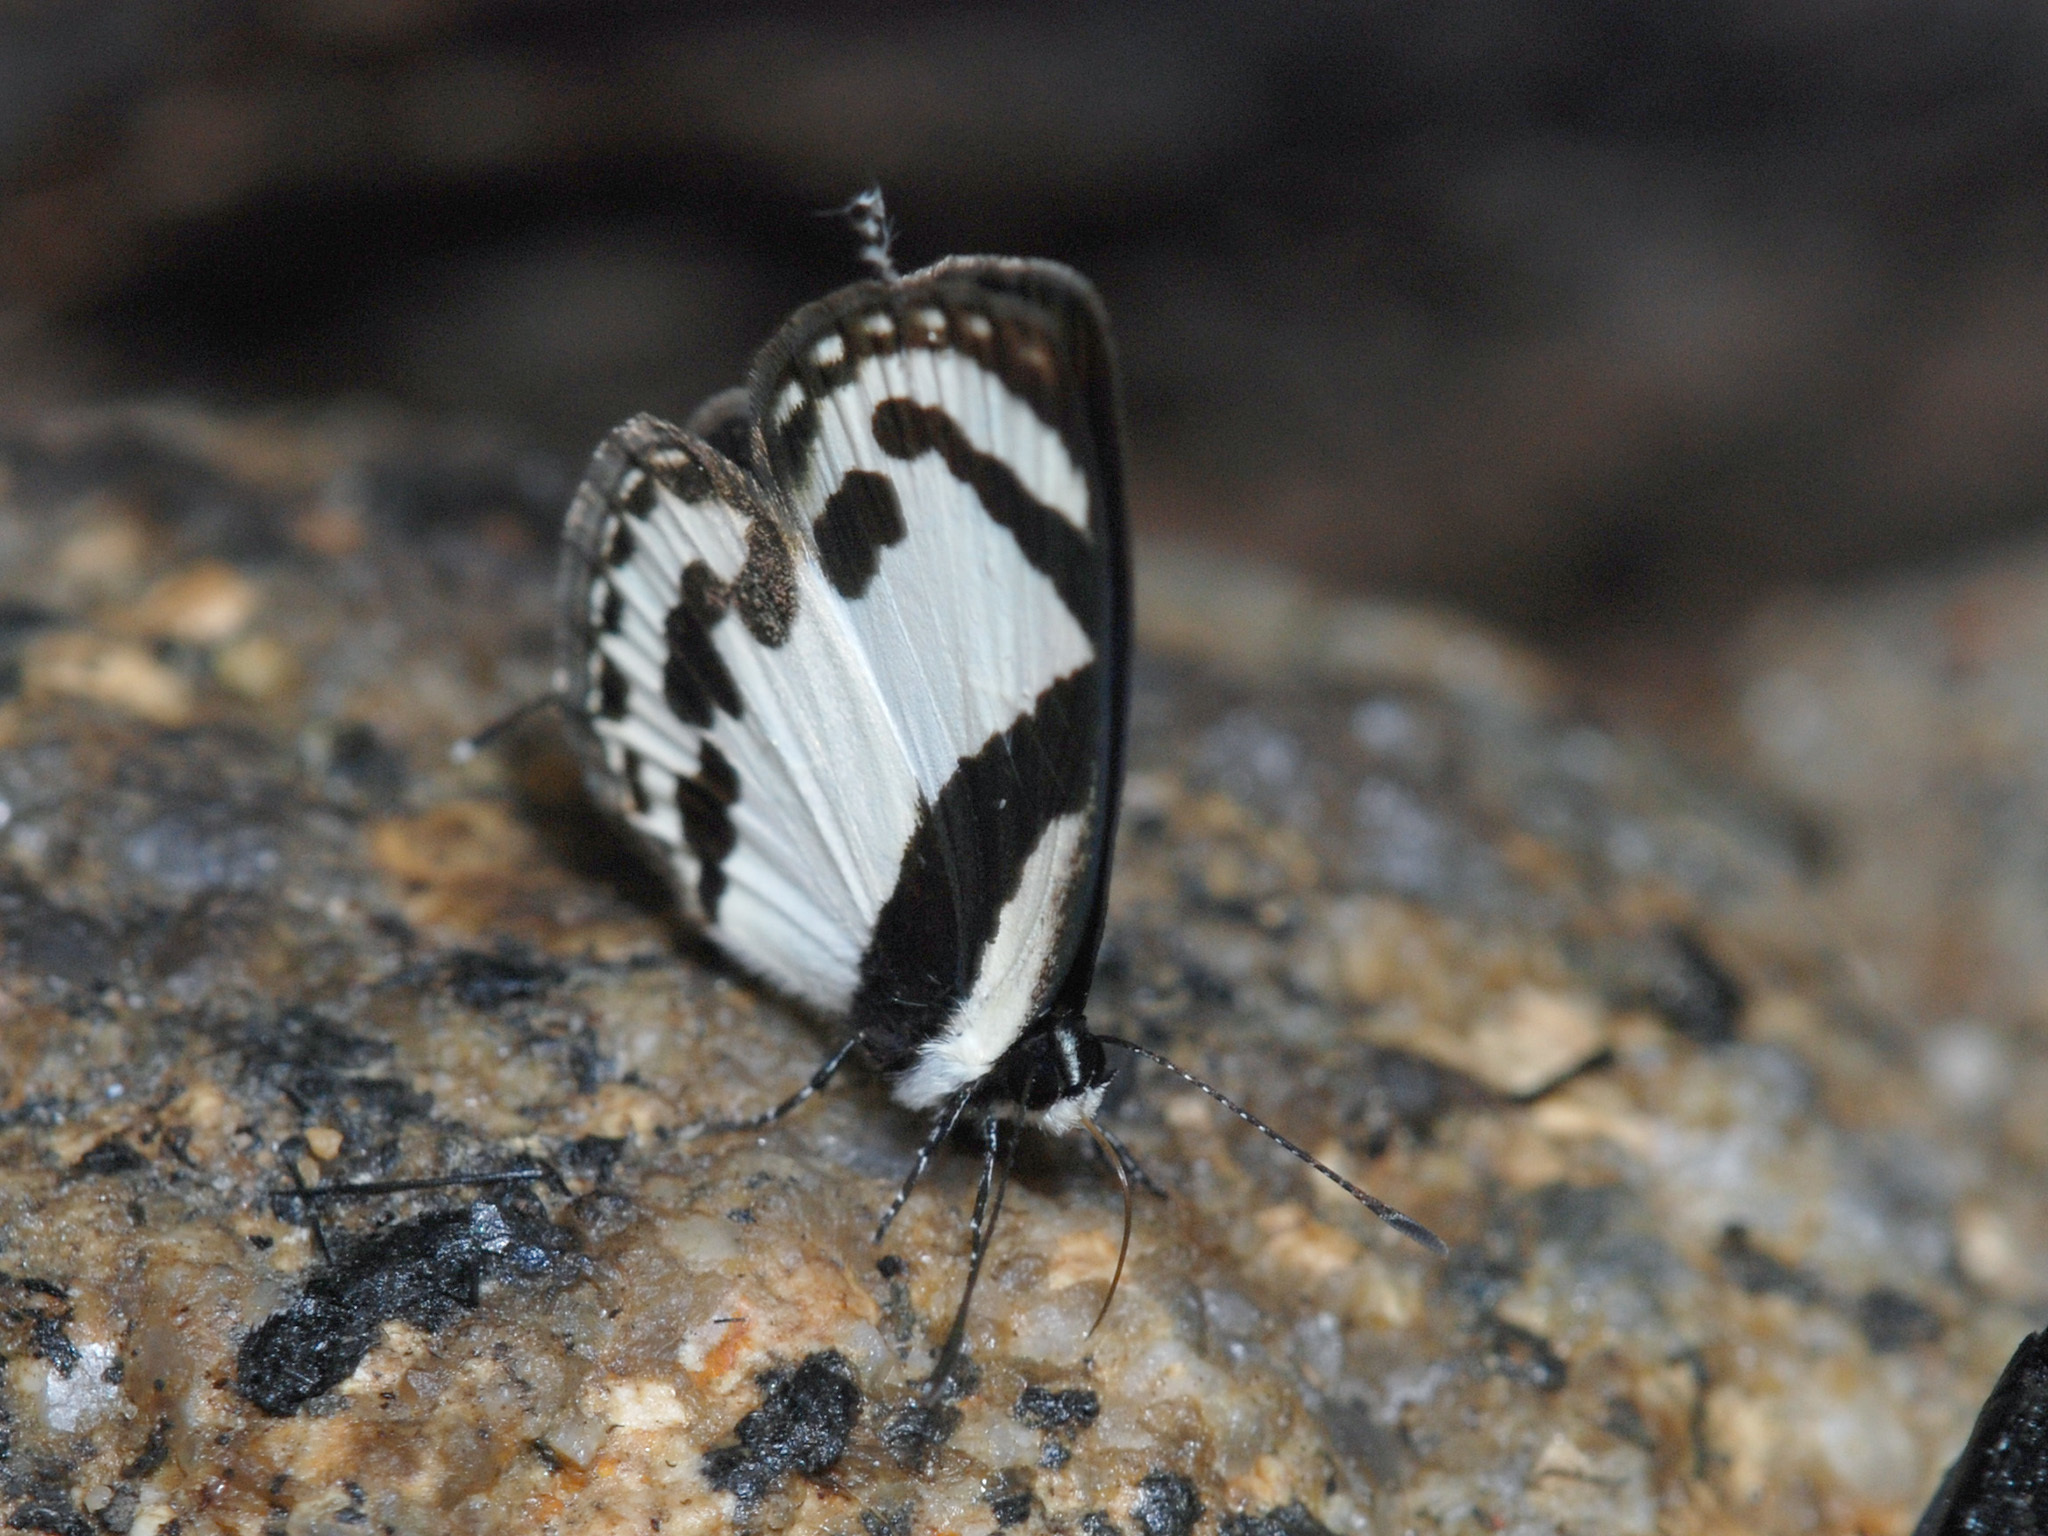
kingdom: Animalia
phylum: Arthropoda
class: Insecta
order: Lepidoptera
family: Lycaenidae
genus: Caleta
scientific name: Caleta roxus
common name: Straight pierrot
